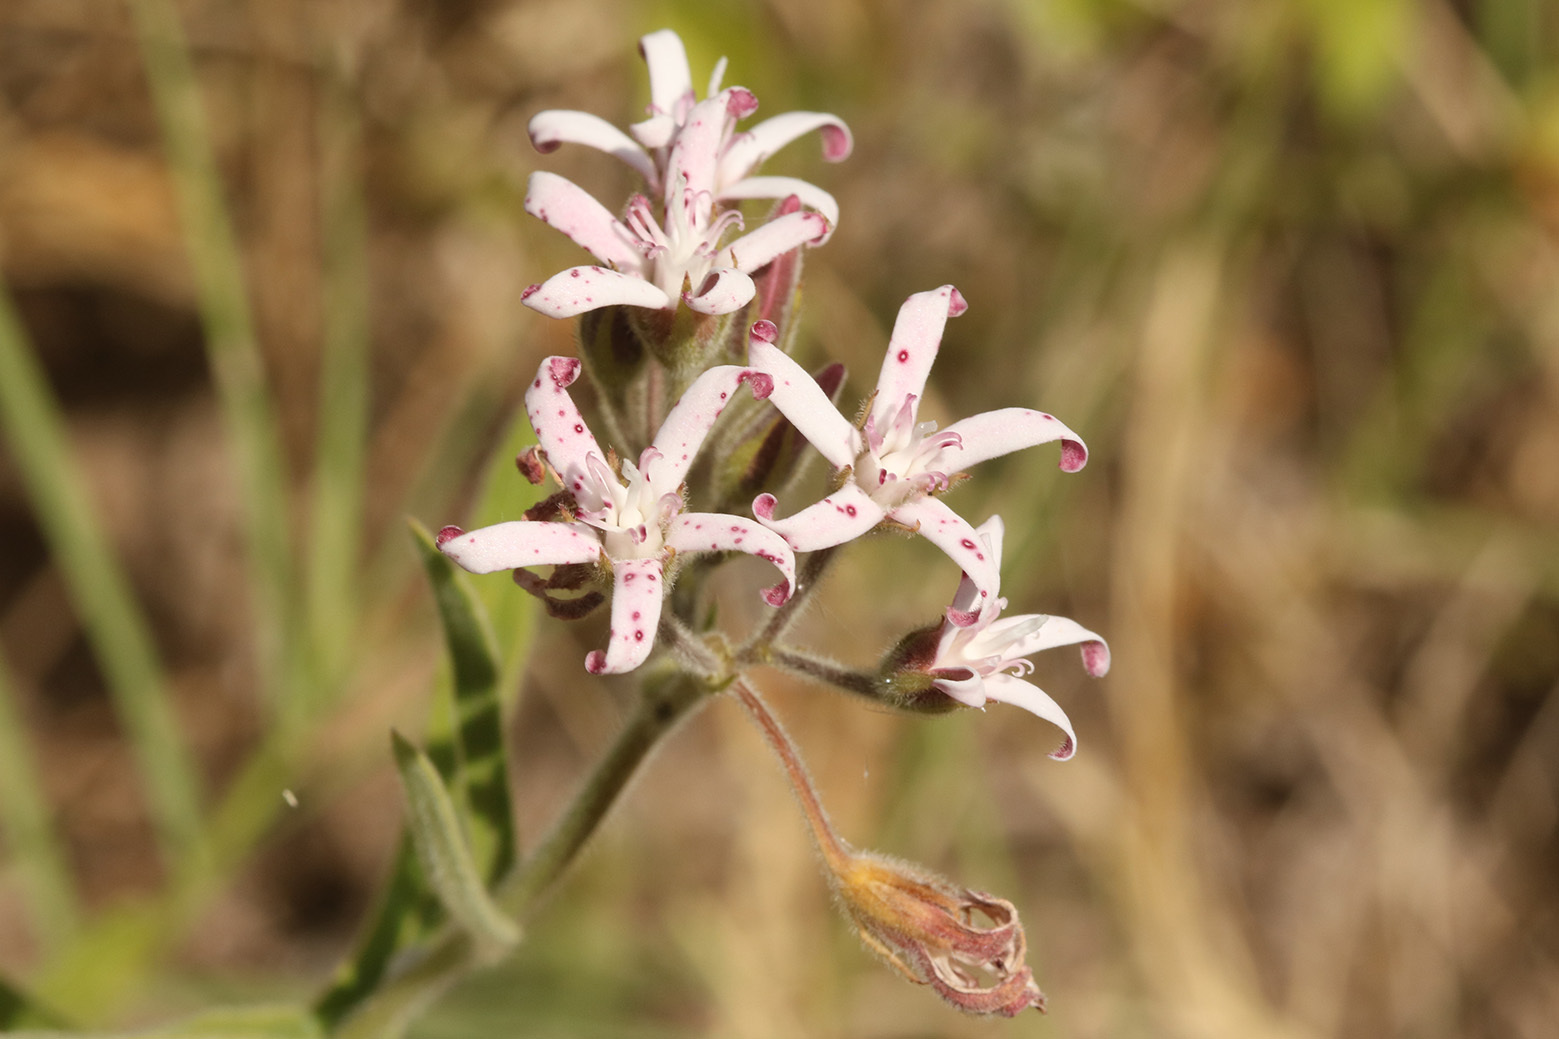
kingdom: Plantae
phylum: Tracheophyta
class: Magnoliopsida
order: Gentianales
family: Apocynaceae
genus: Oxypetalum
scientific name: Oxypetalum solanoides
